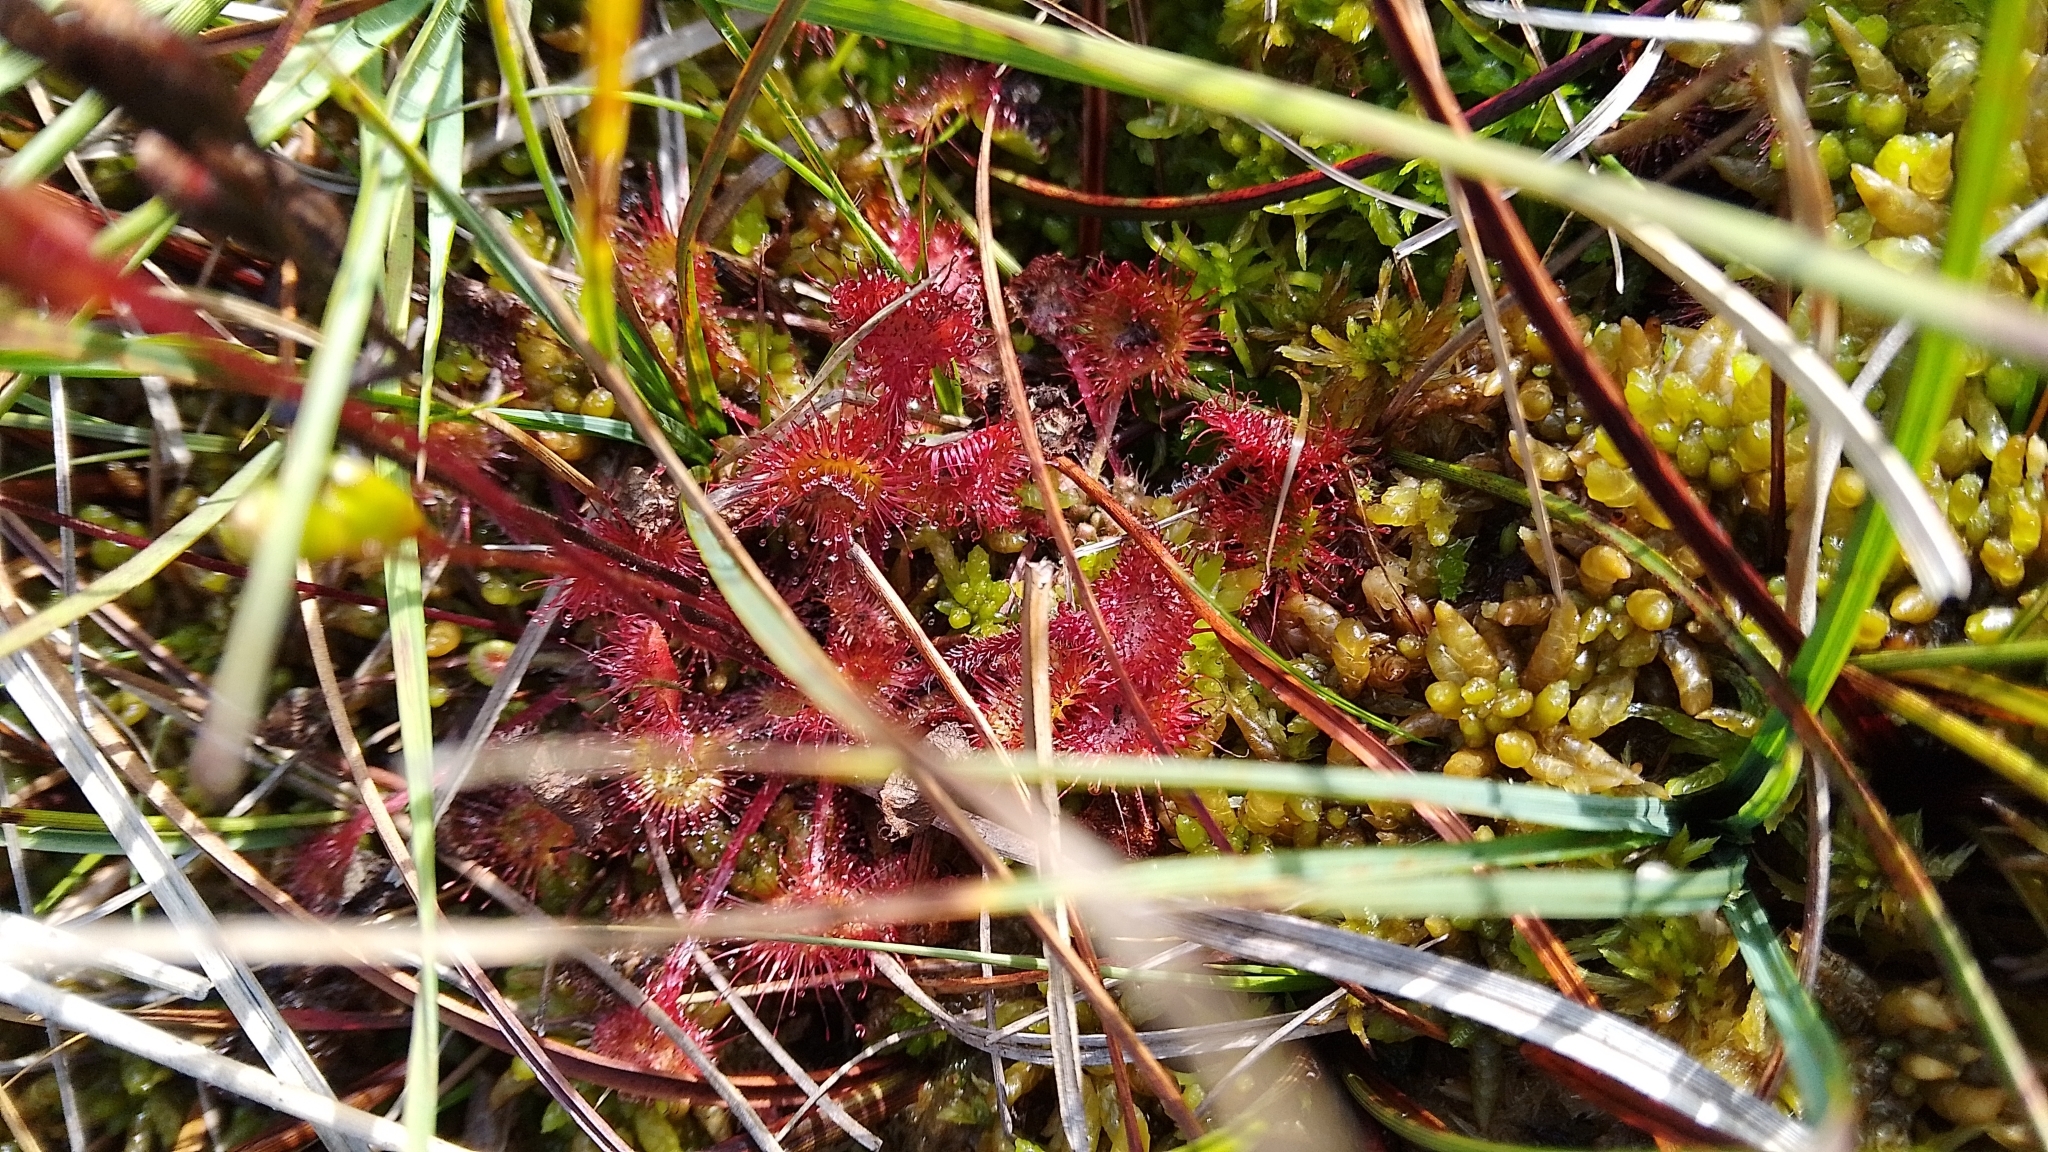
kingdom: Plantae
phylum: Tracheophyta
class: Magnoliopsida
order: Caryophyllales
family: Droseraceae
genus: Drosera
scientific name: Drosera rotundifolia
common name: Round-leaved sundew
